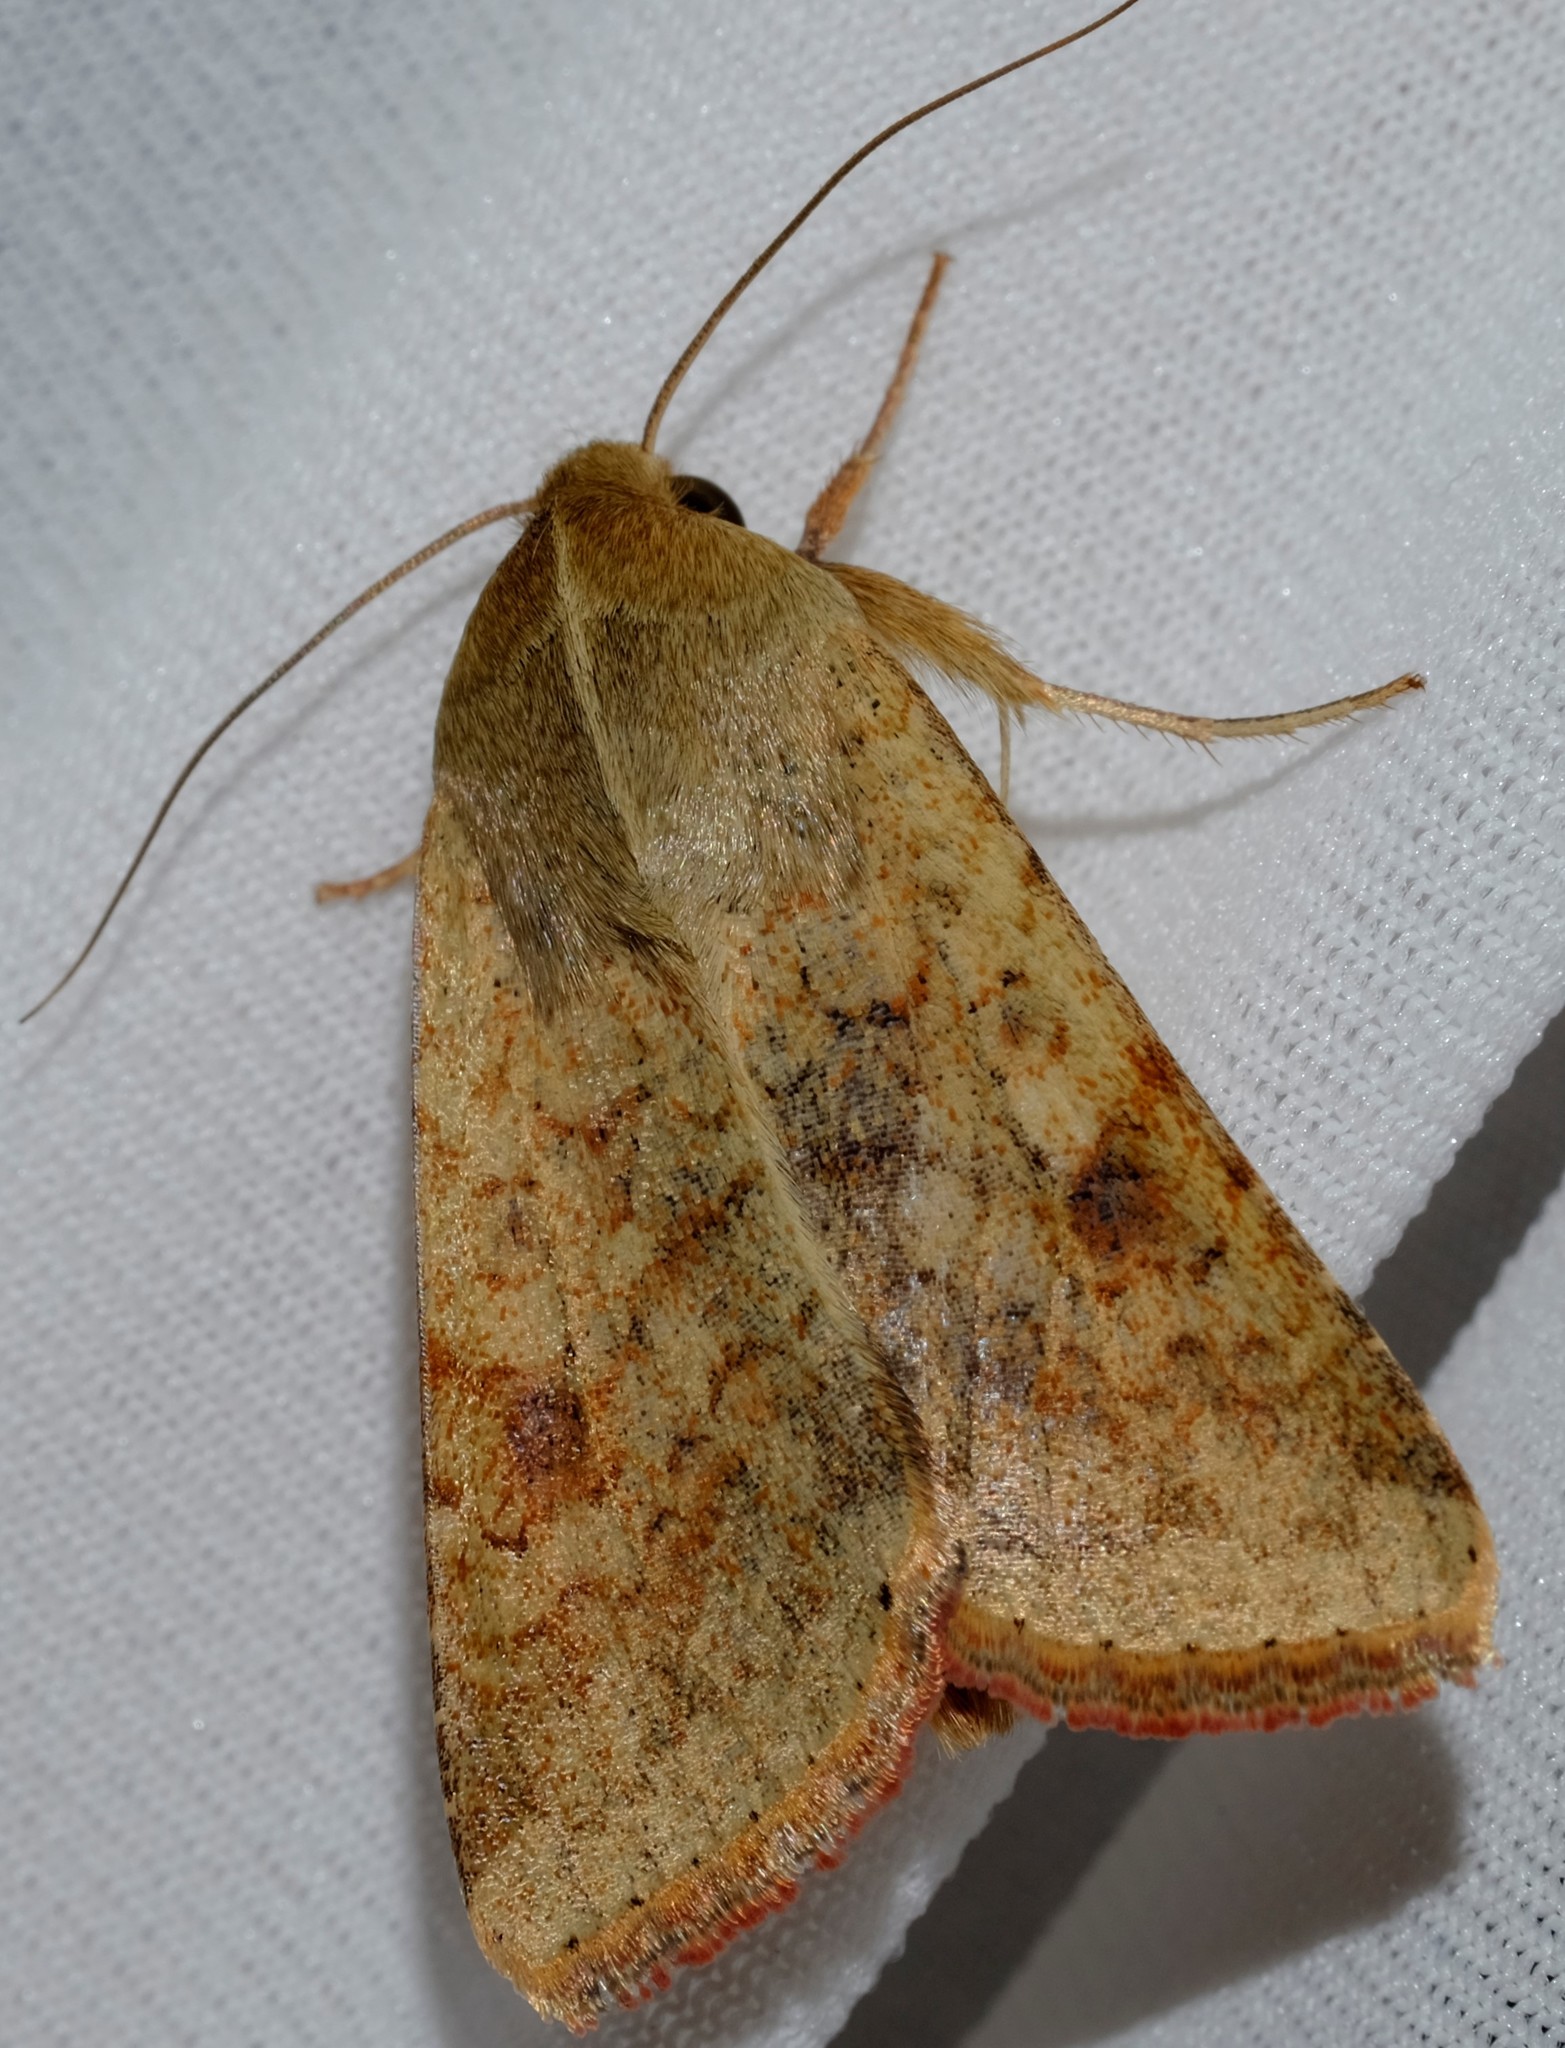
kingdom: Animalia
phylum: Arthropoda
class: Insecta
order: Lepidoptera
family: Noctuidae
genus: Australothis
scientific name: Australothis rubrescens
